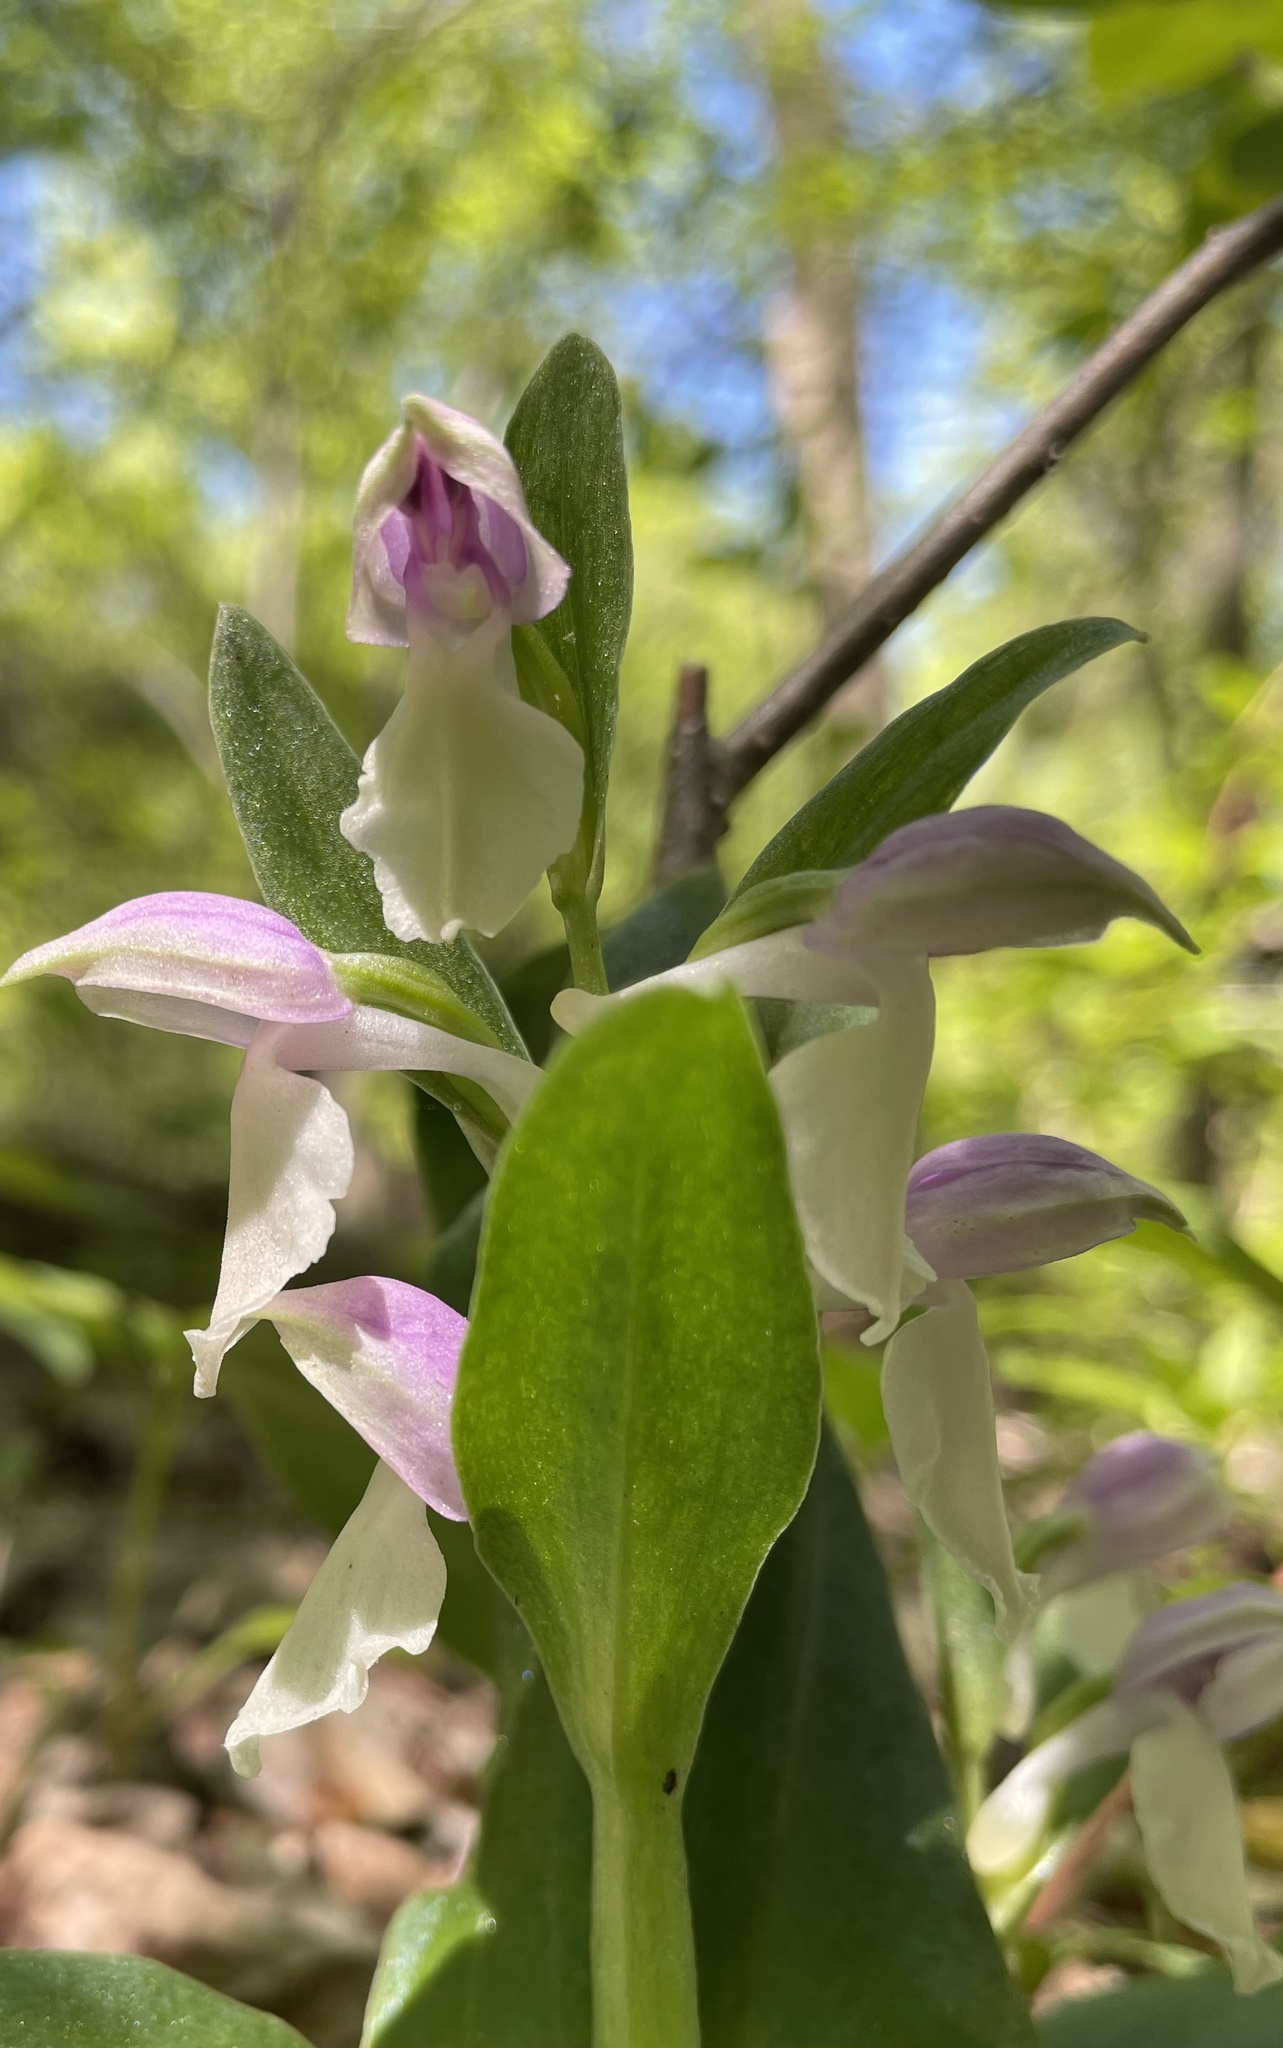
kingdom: Plantae
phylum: Tracheophyta
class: Liliopsida
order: Asparagales
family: Orchidaceae
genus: Galearis
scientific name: Galearis spectabilis
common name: Purple-hooded orchis
